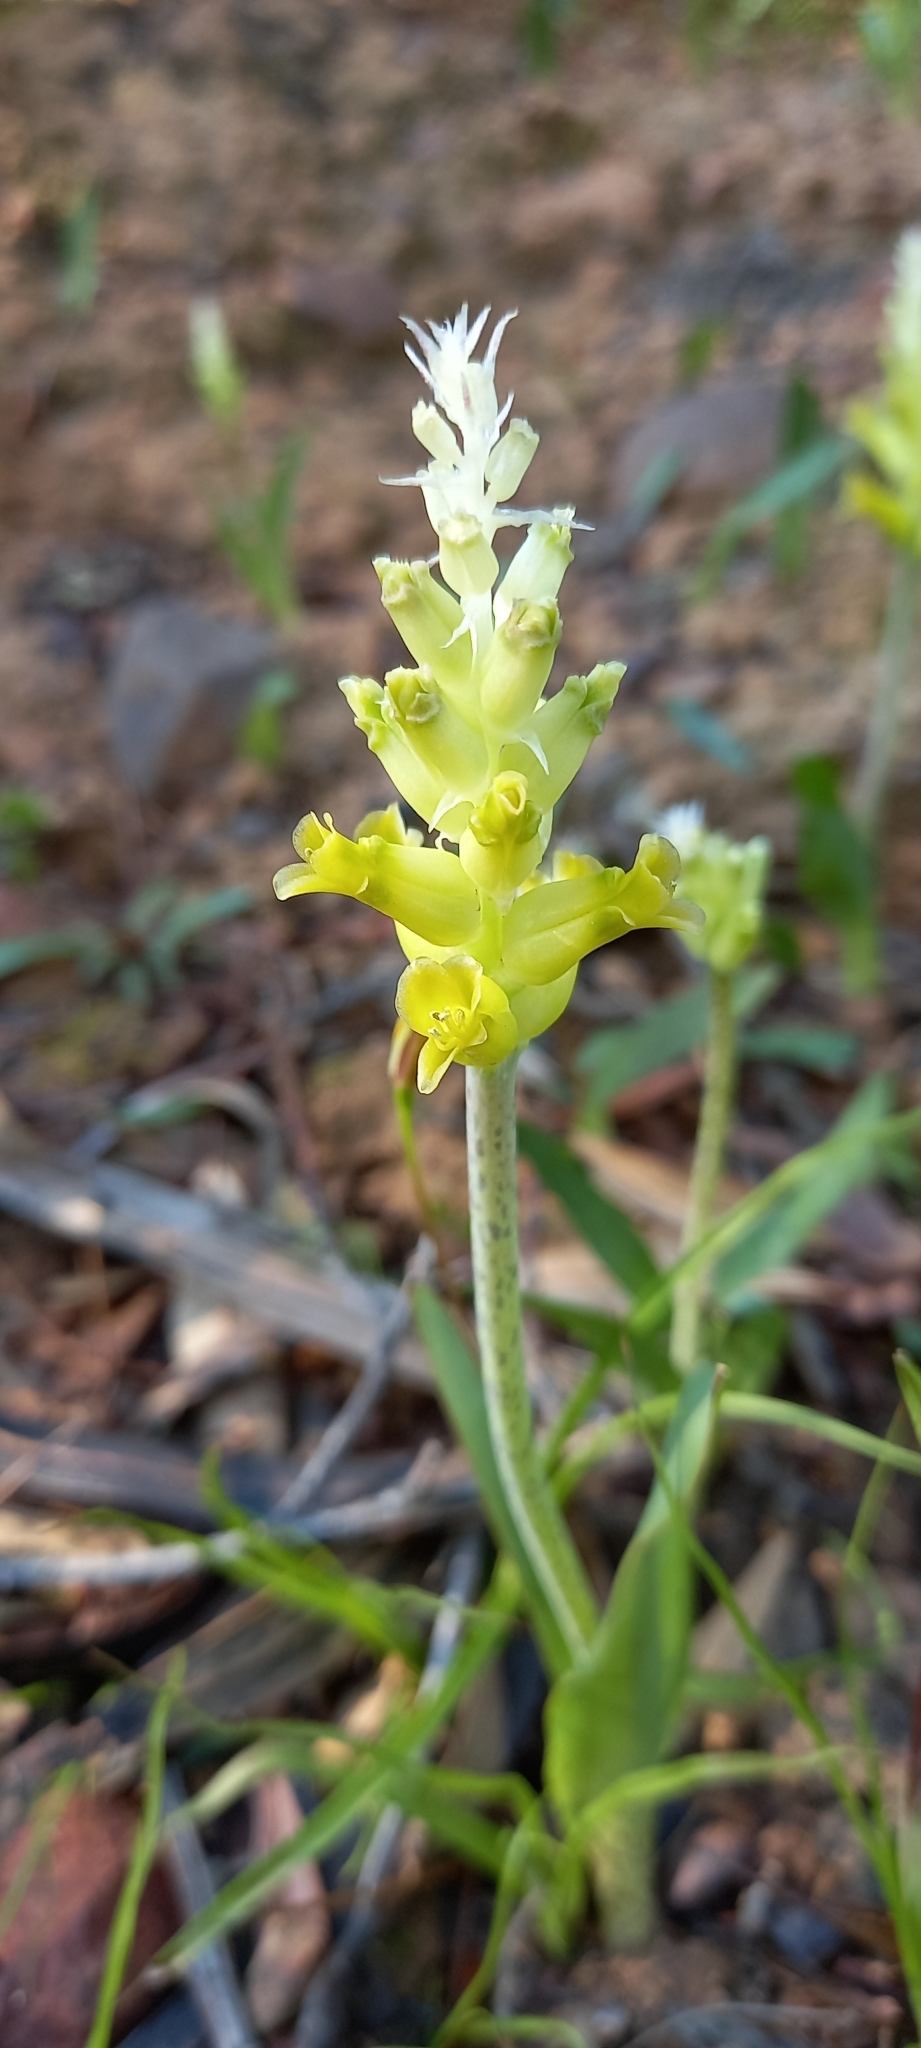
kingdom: Plantae
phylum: Tracheophyta
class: Liliopsida
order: Asparagales
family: Asparagaceae
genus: Lachenalia
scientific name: Lachenalia lutea
